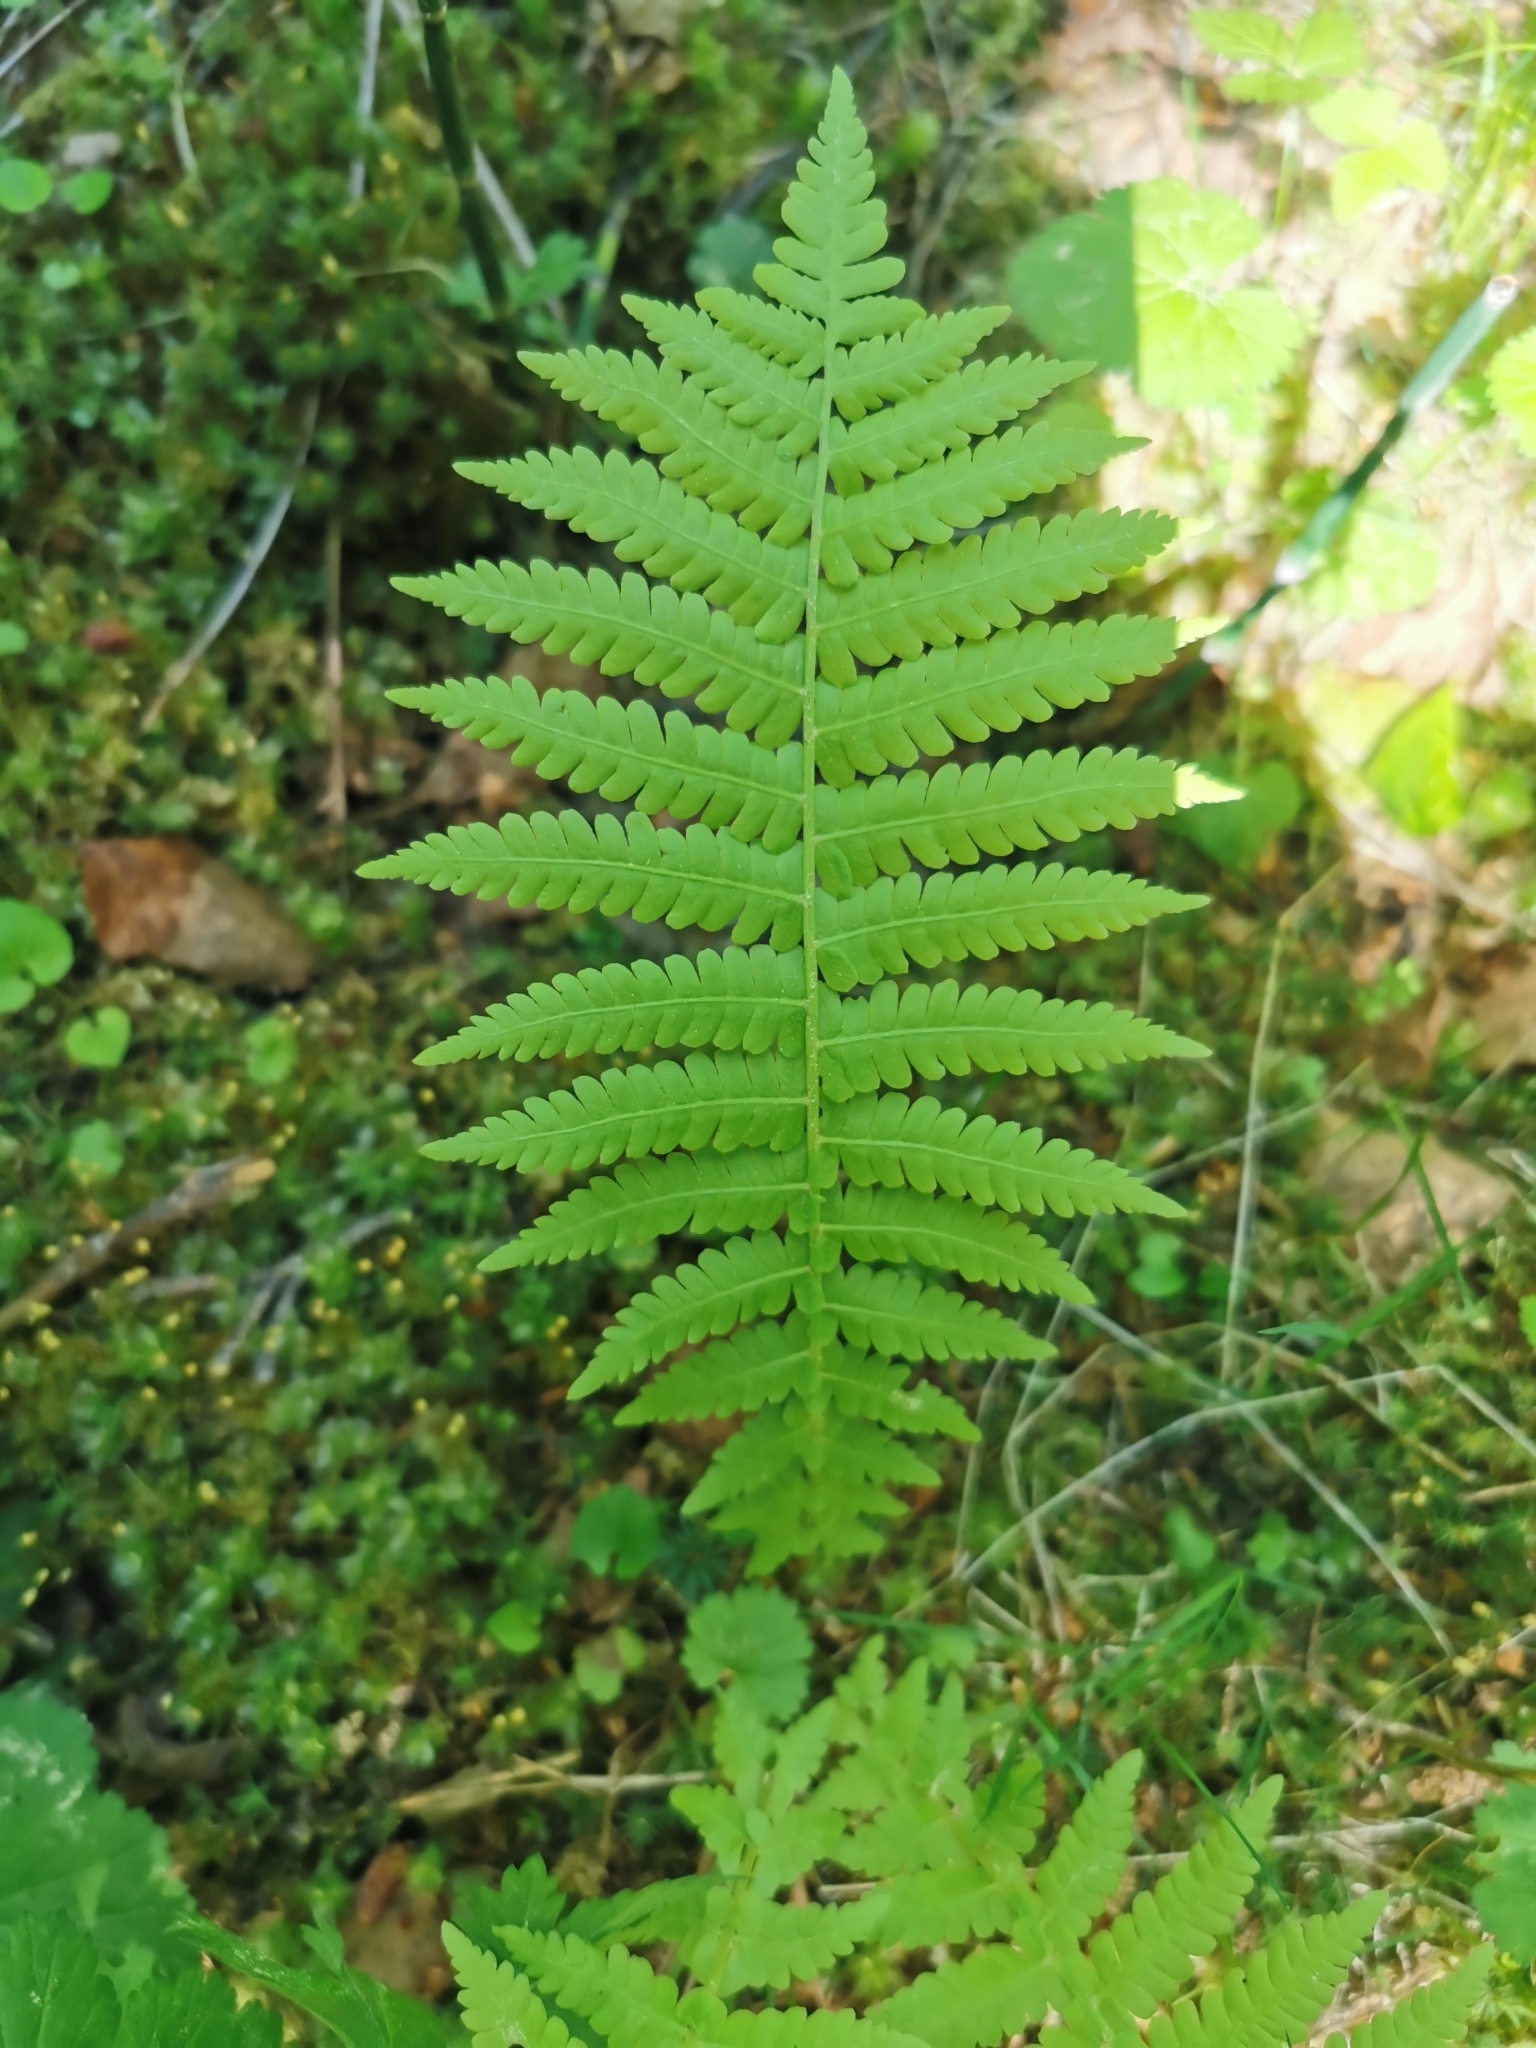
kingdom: Plantae
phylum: Tracheophyta
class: Polypodiopsida
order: Polypodiales
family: Onocleaceae
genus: Matteuccia
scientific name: Matteuccia struthiopteris
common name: Ostrich fern
